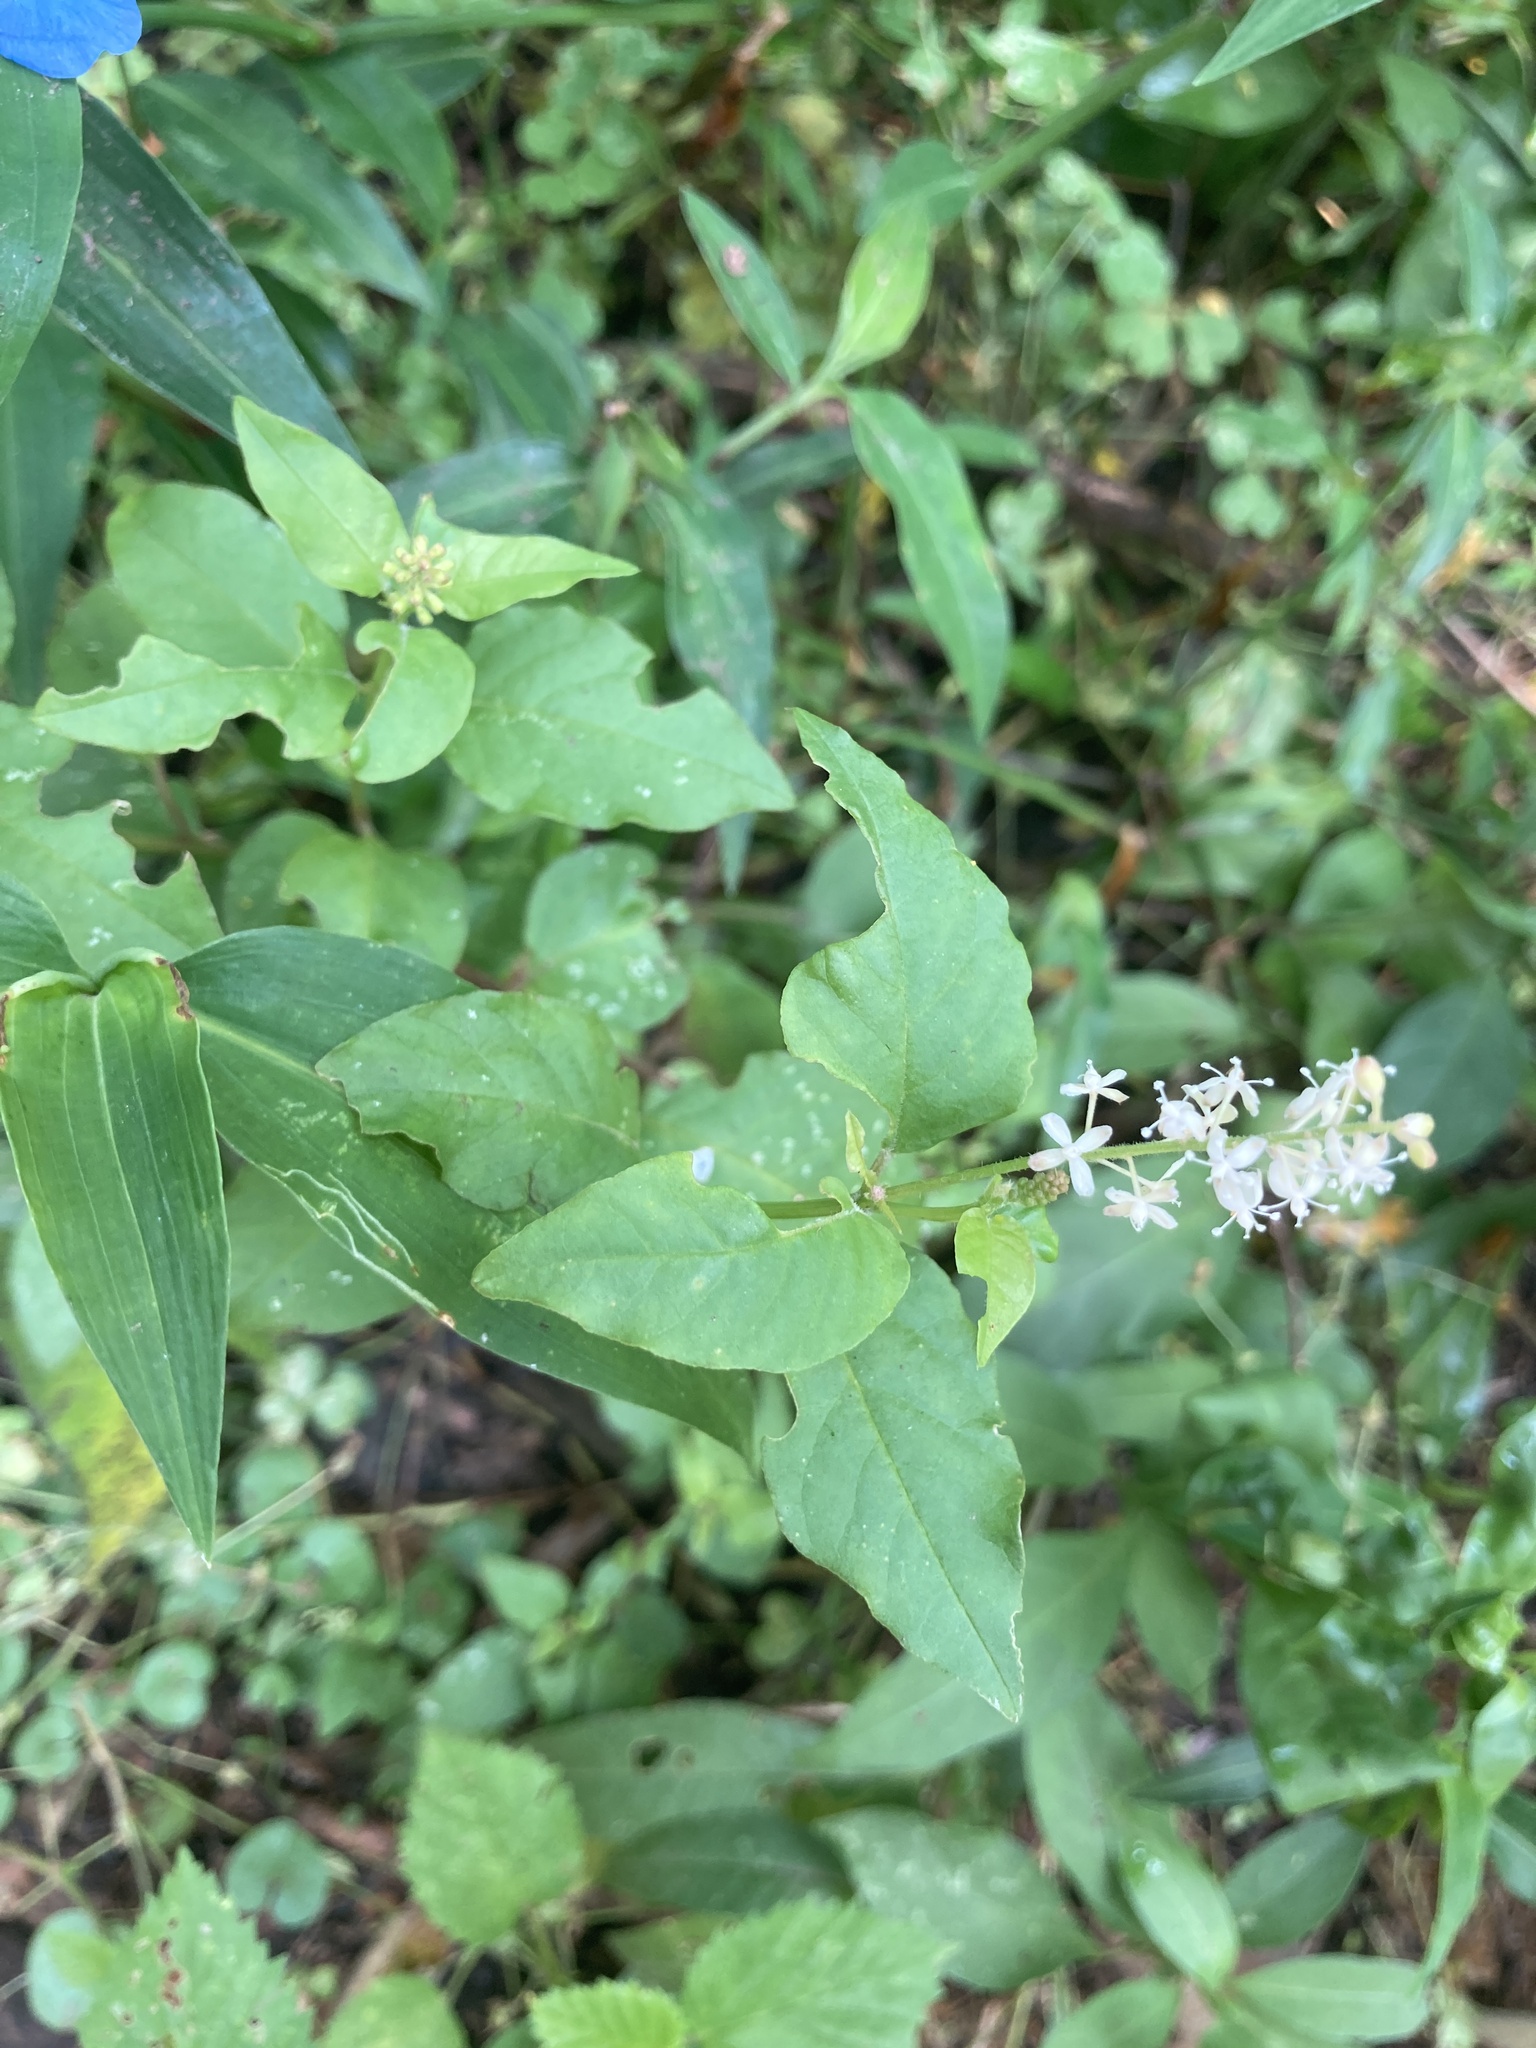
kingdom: Plantae
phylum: Tracheophyta
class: Magnoliopsida
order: Caryophyllales
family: Phytolaccaceae
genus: Rivina
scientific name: Rivina humilis
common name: Rougeplant
